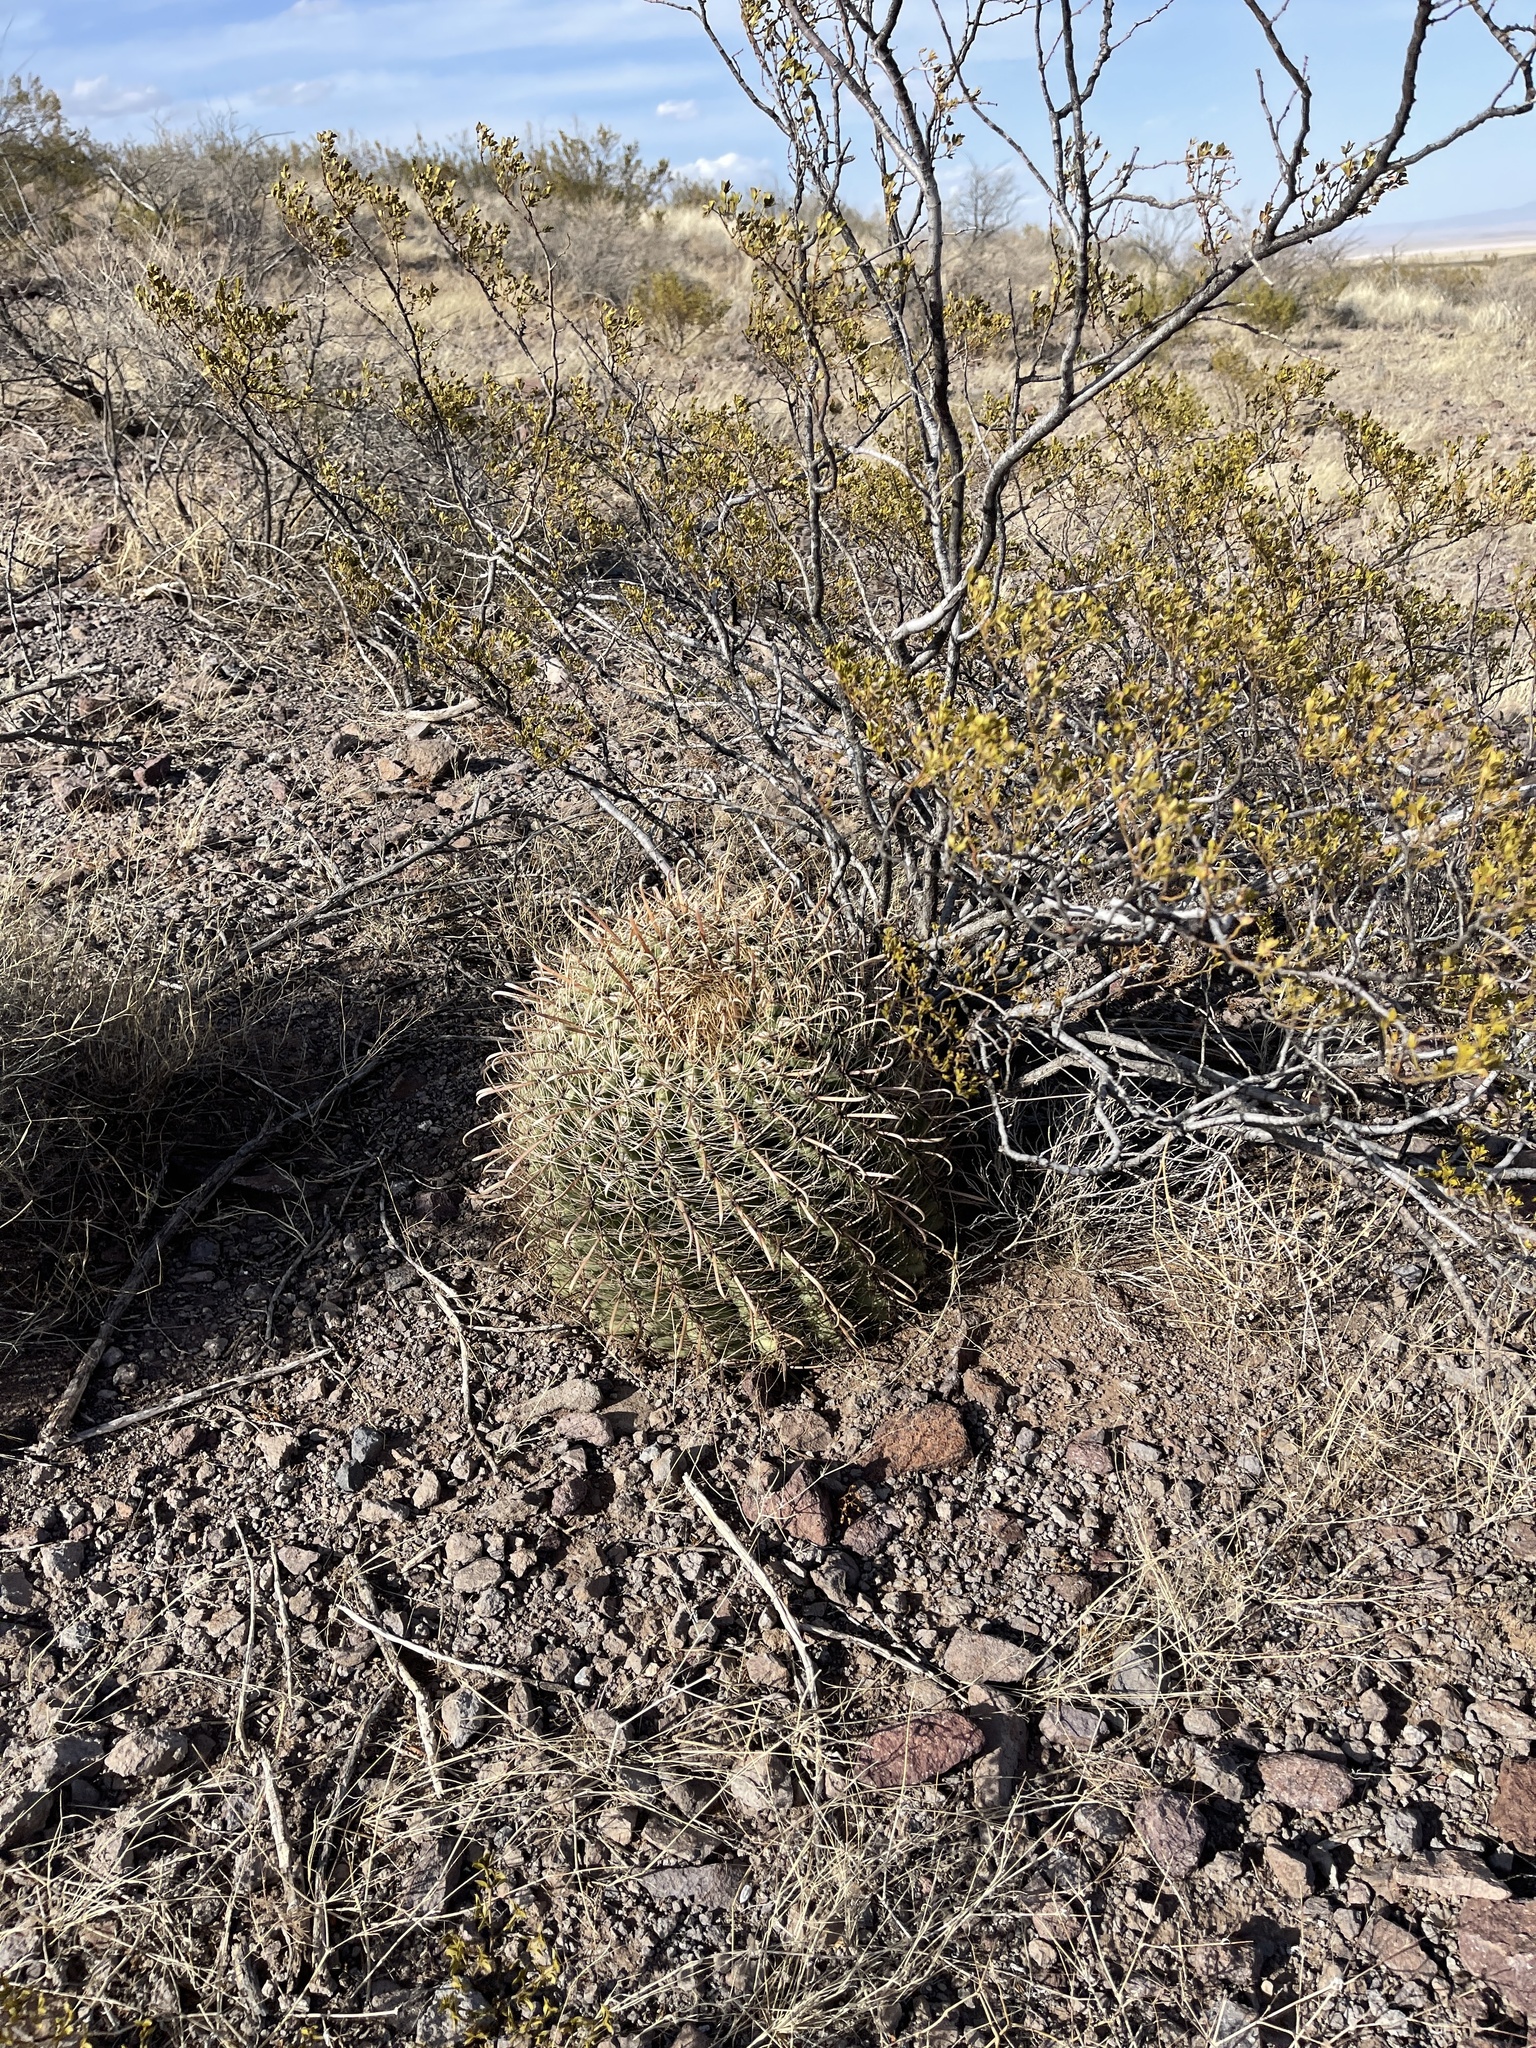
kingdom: Plantae
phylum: Tracheophyta
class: Magnoliopsida
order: Caryophyllales
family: Cactaceae
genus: Ferocactus
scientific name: Ferocactus wislizeni
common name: Candy barrel cactus
